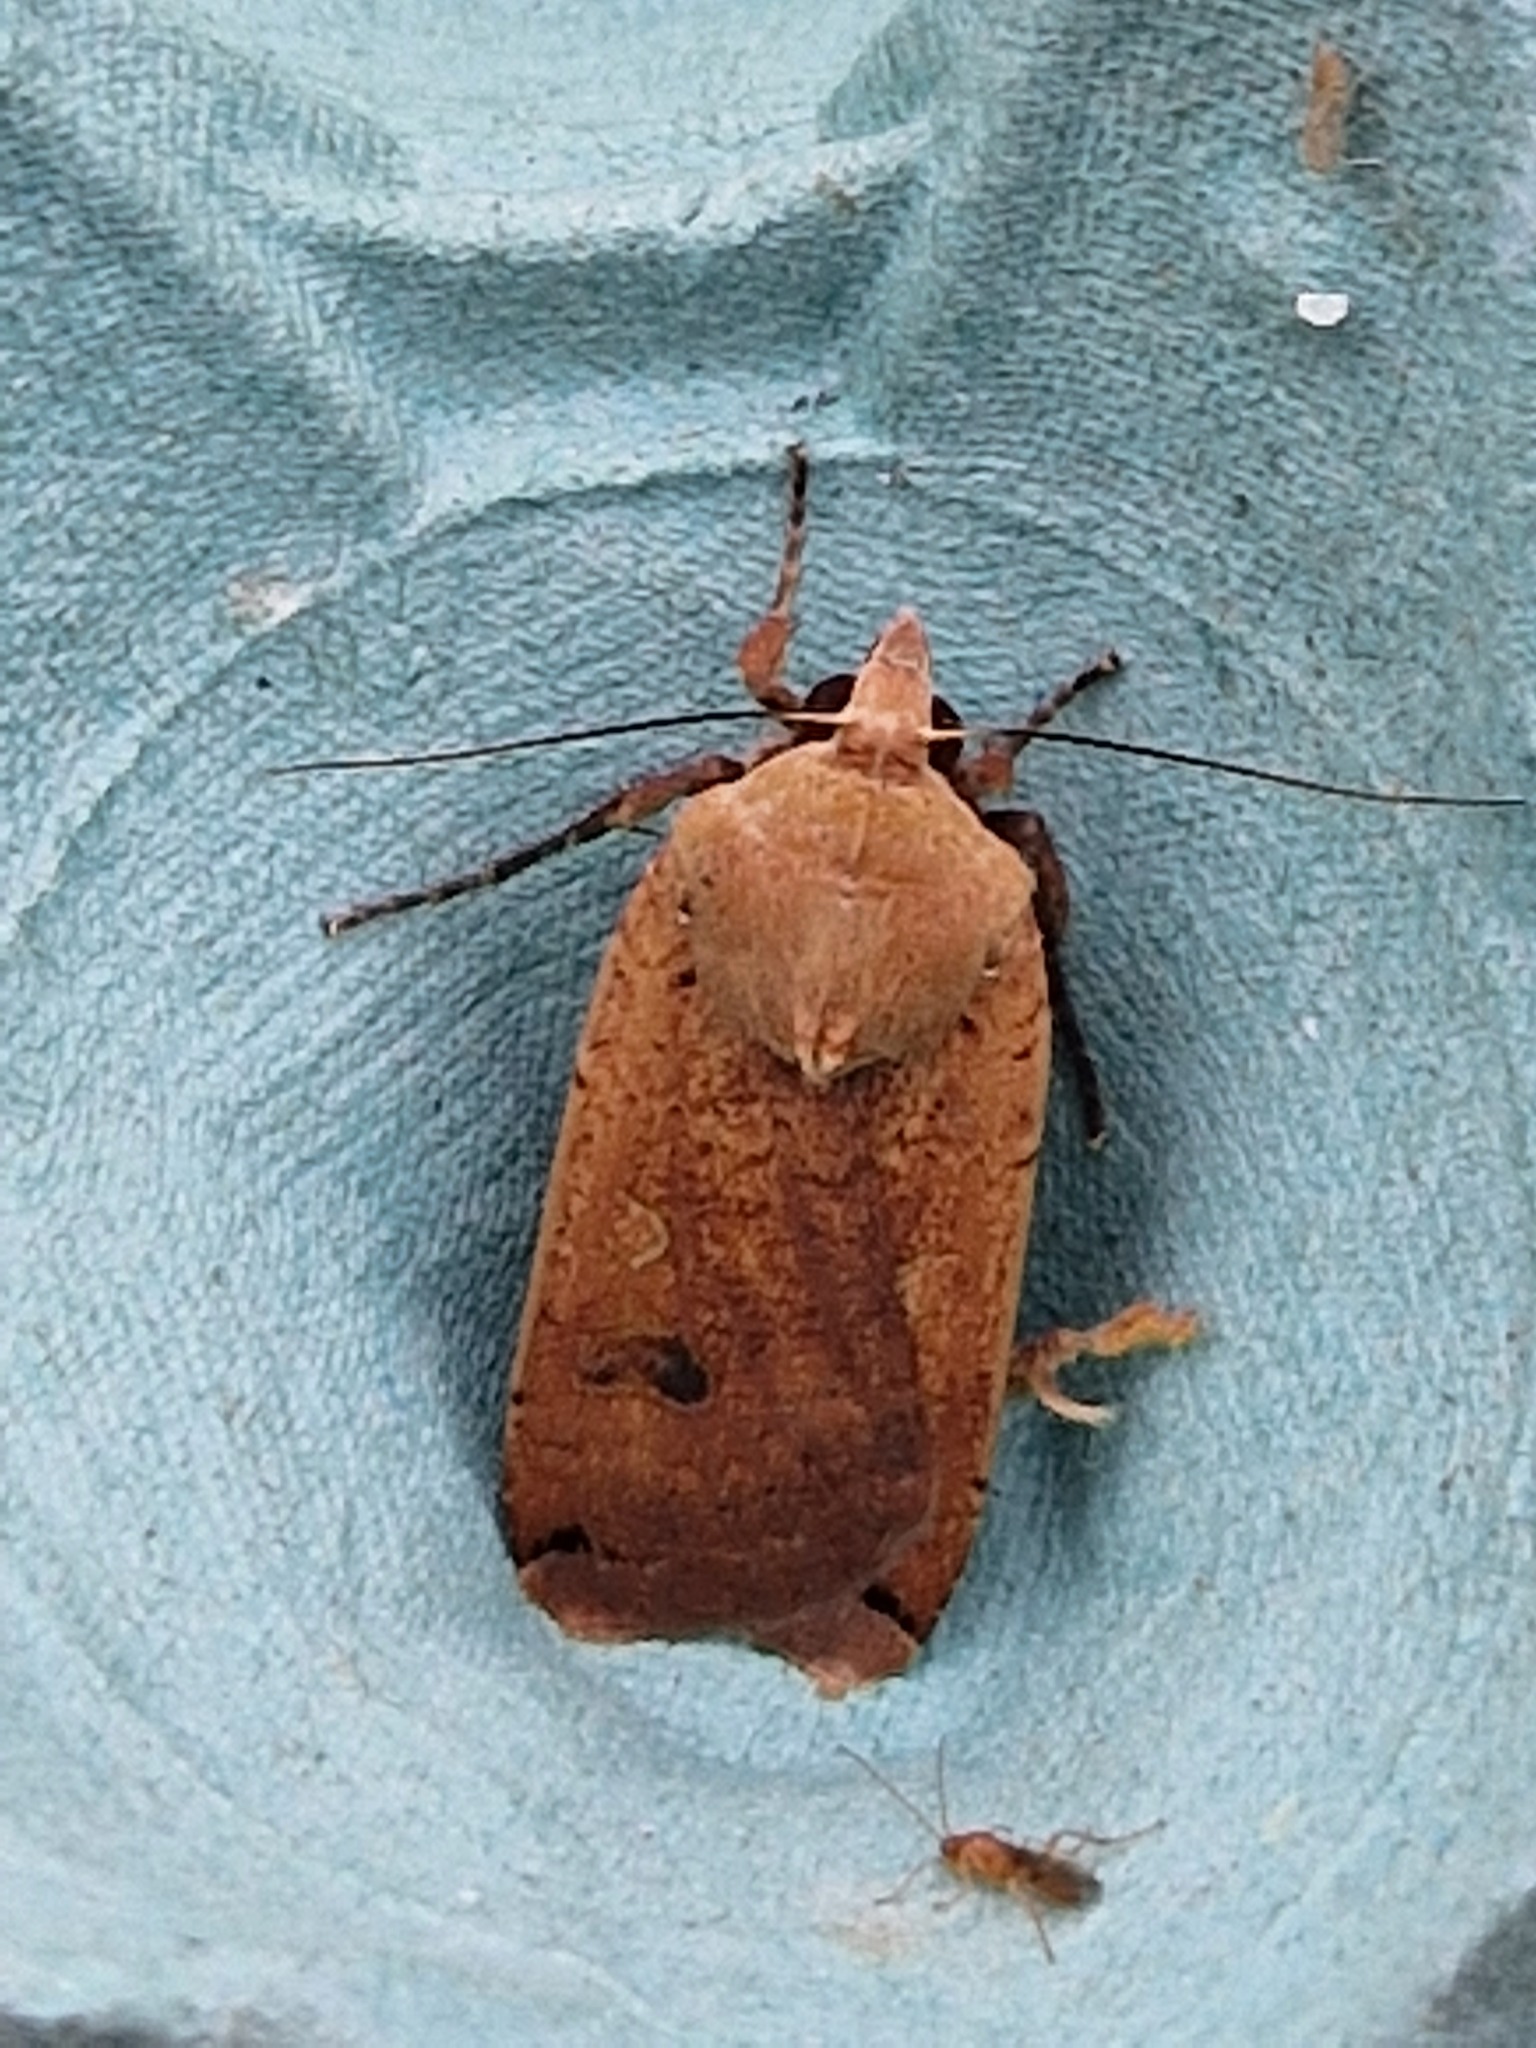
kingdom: Animalia
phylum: Arthropoda
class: Insecta
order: Lepidoptera
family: Noctuidae
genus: Noctua
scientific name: Noctua pronuba
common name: Large yellow underwing
